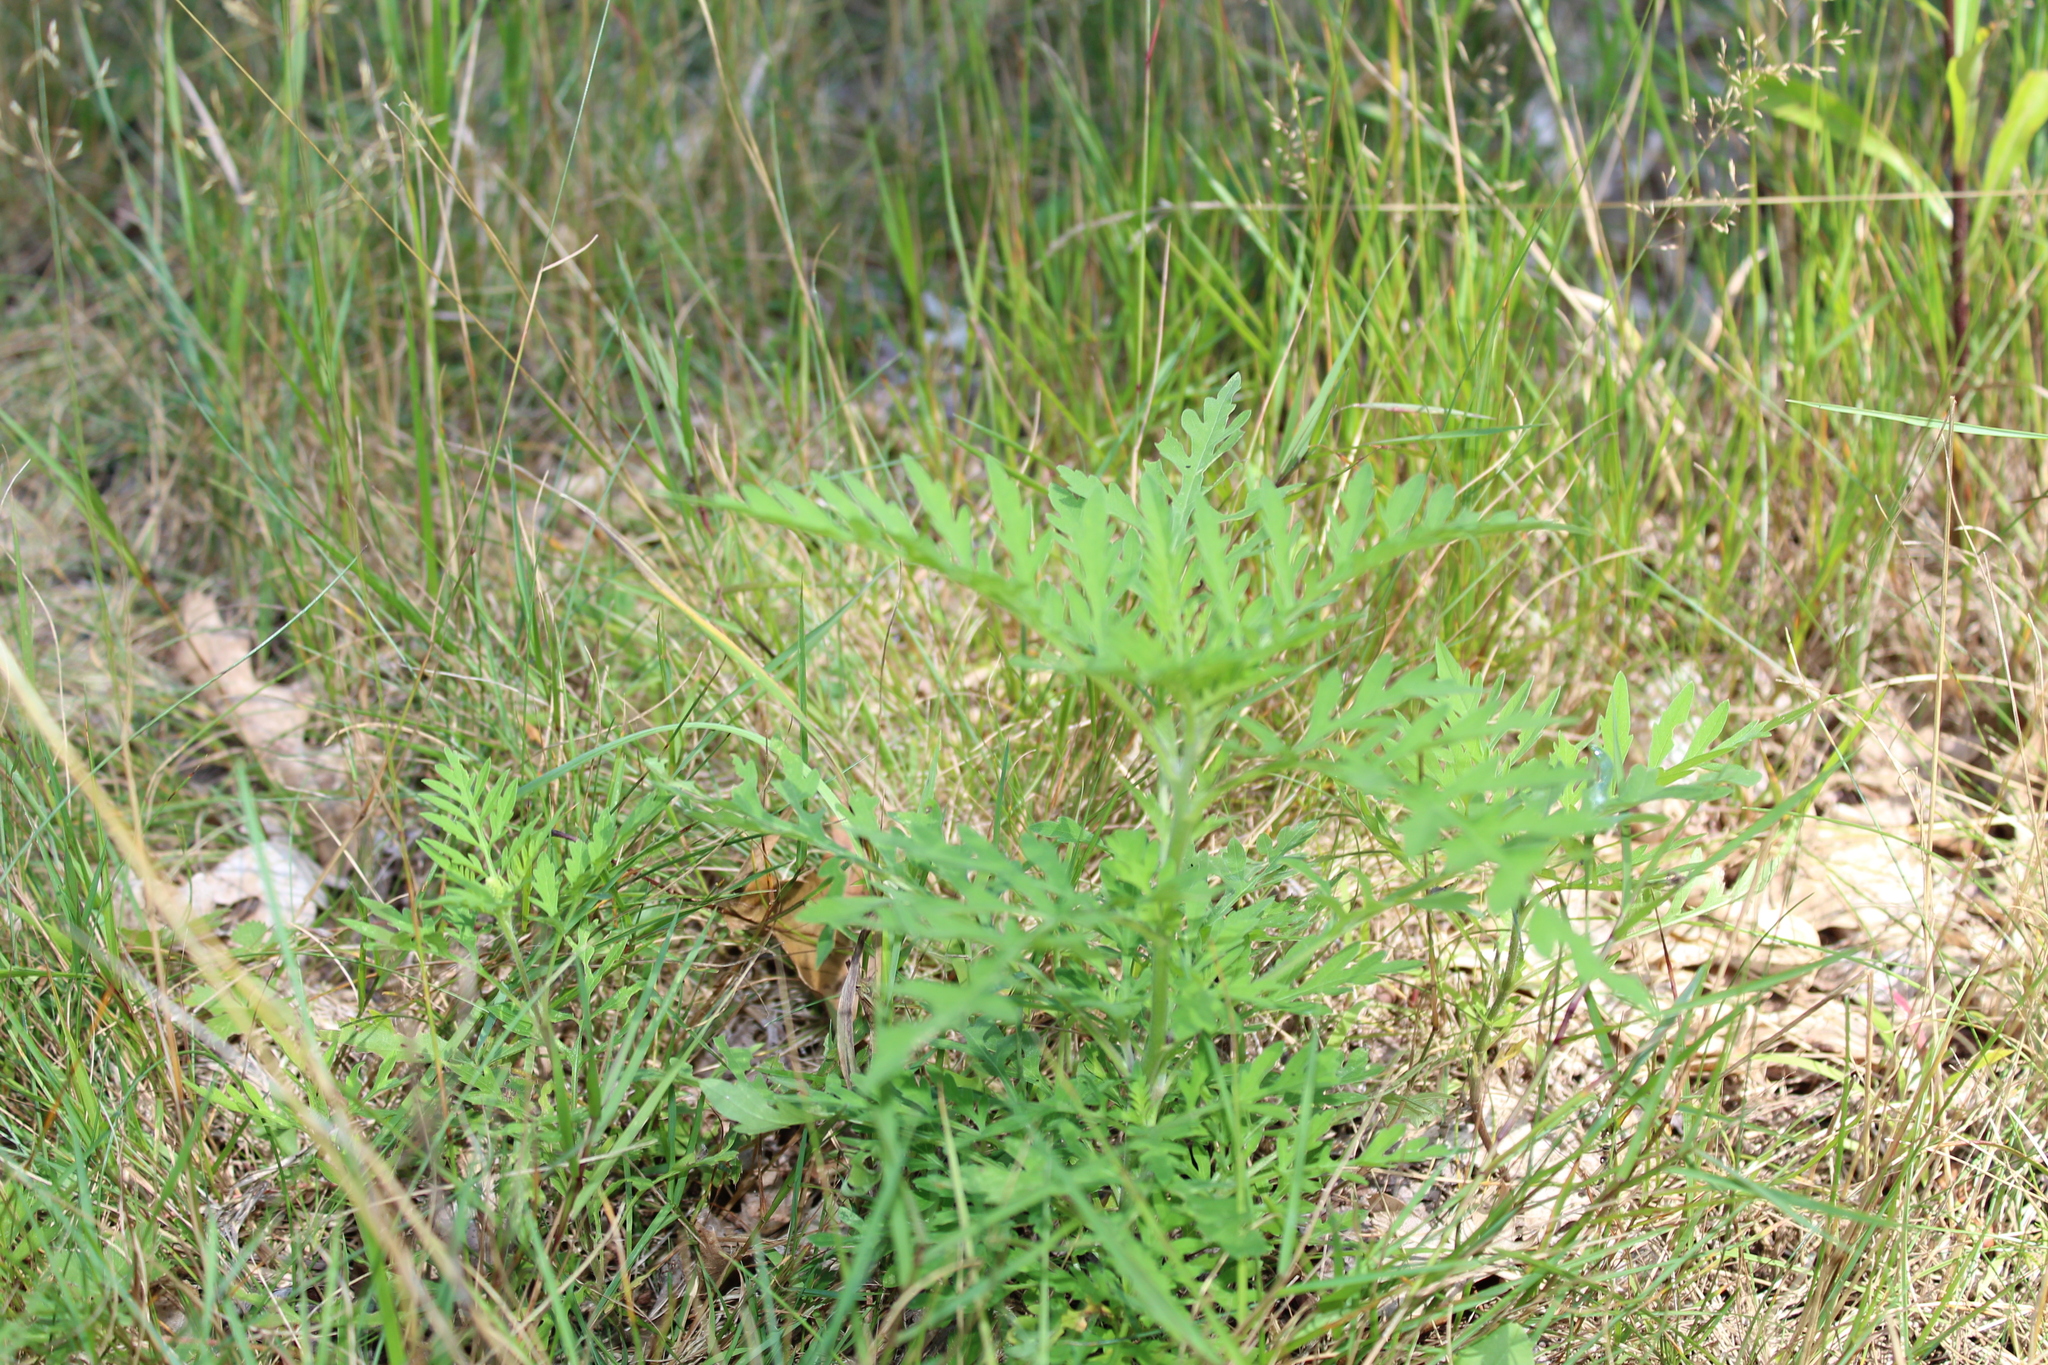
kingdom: Plantae
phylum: Tracheophyta
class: Magnoliopsida
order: Asterales
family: Asteraceae
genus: Ambrosia
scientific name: Ambrosia artemisiifolia
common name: Annual ragweed
